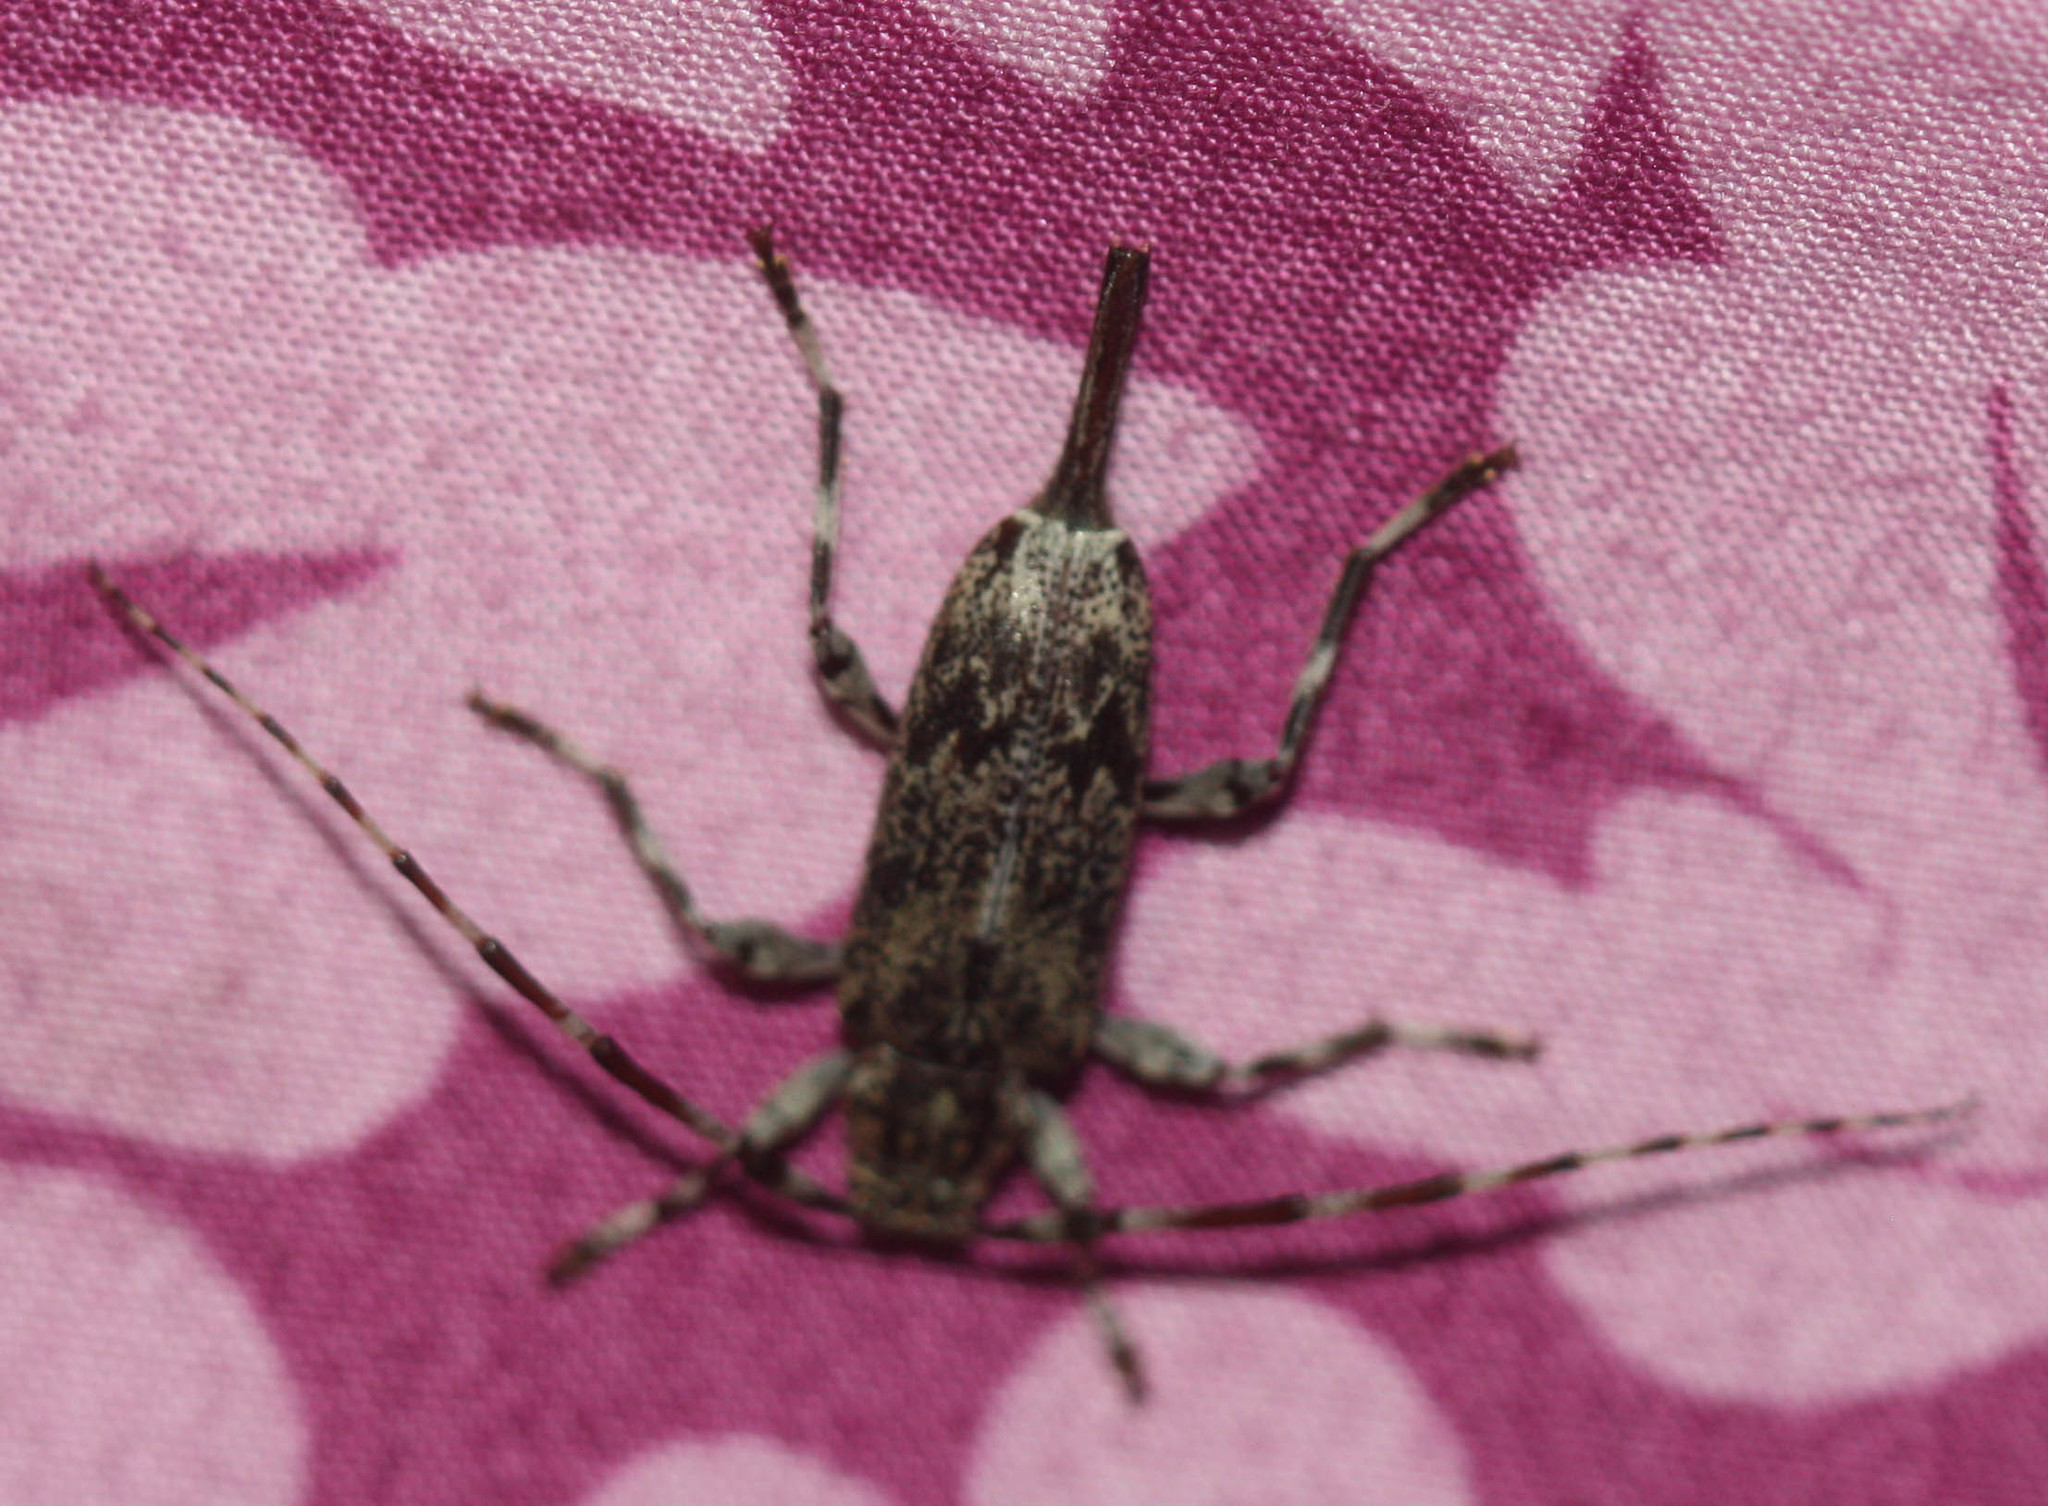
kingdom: Animalia
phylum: Arthropoda
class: Insecta
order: Coleoptera
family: Cerambycidae
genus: Graphisurus
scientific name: Graphisurus fasciatus
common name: Banded graphisurus
